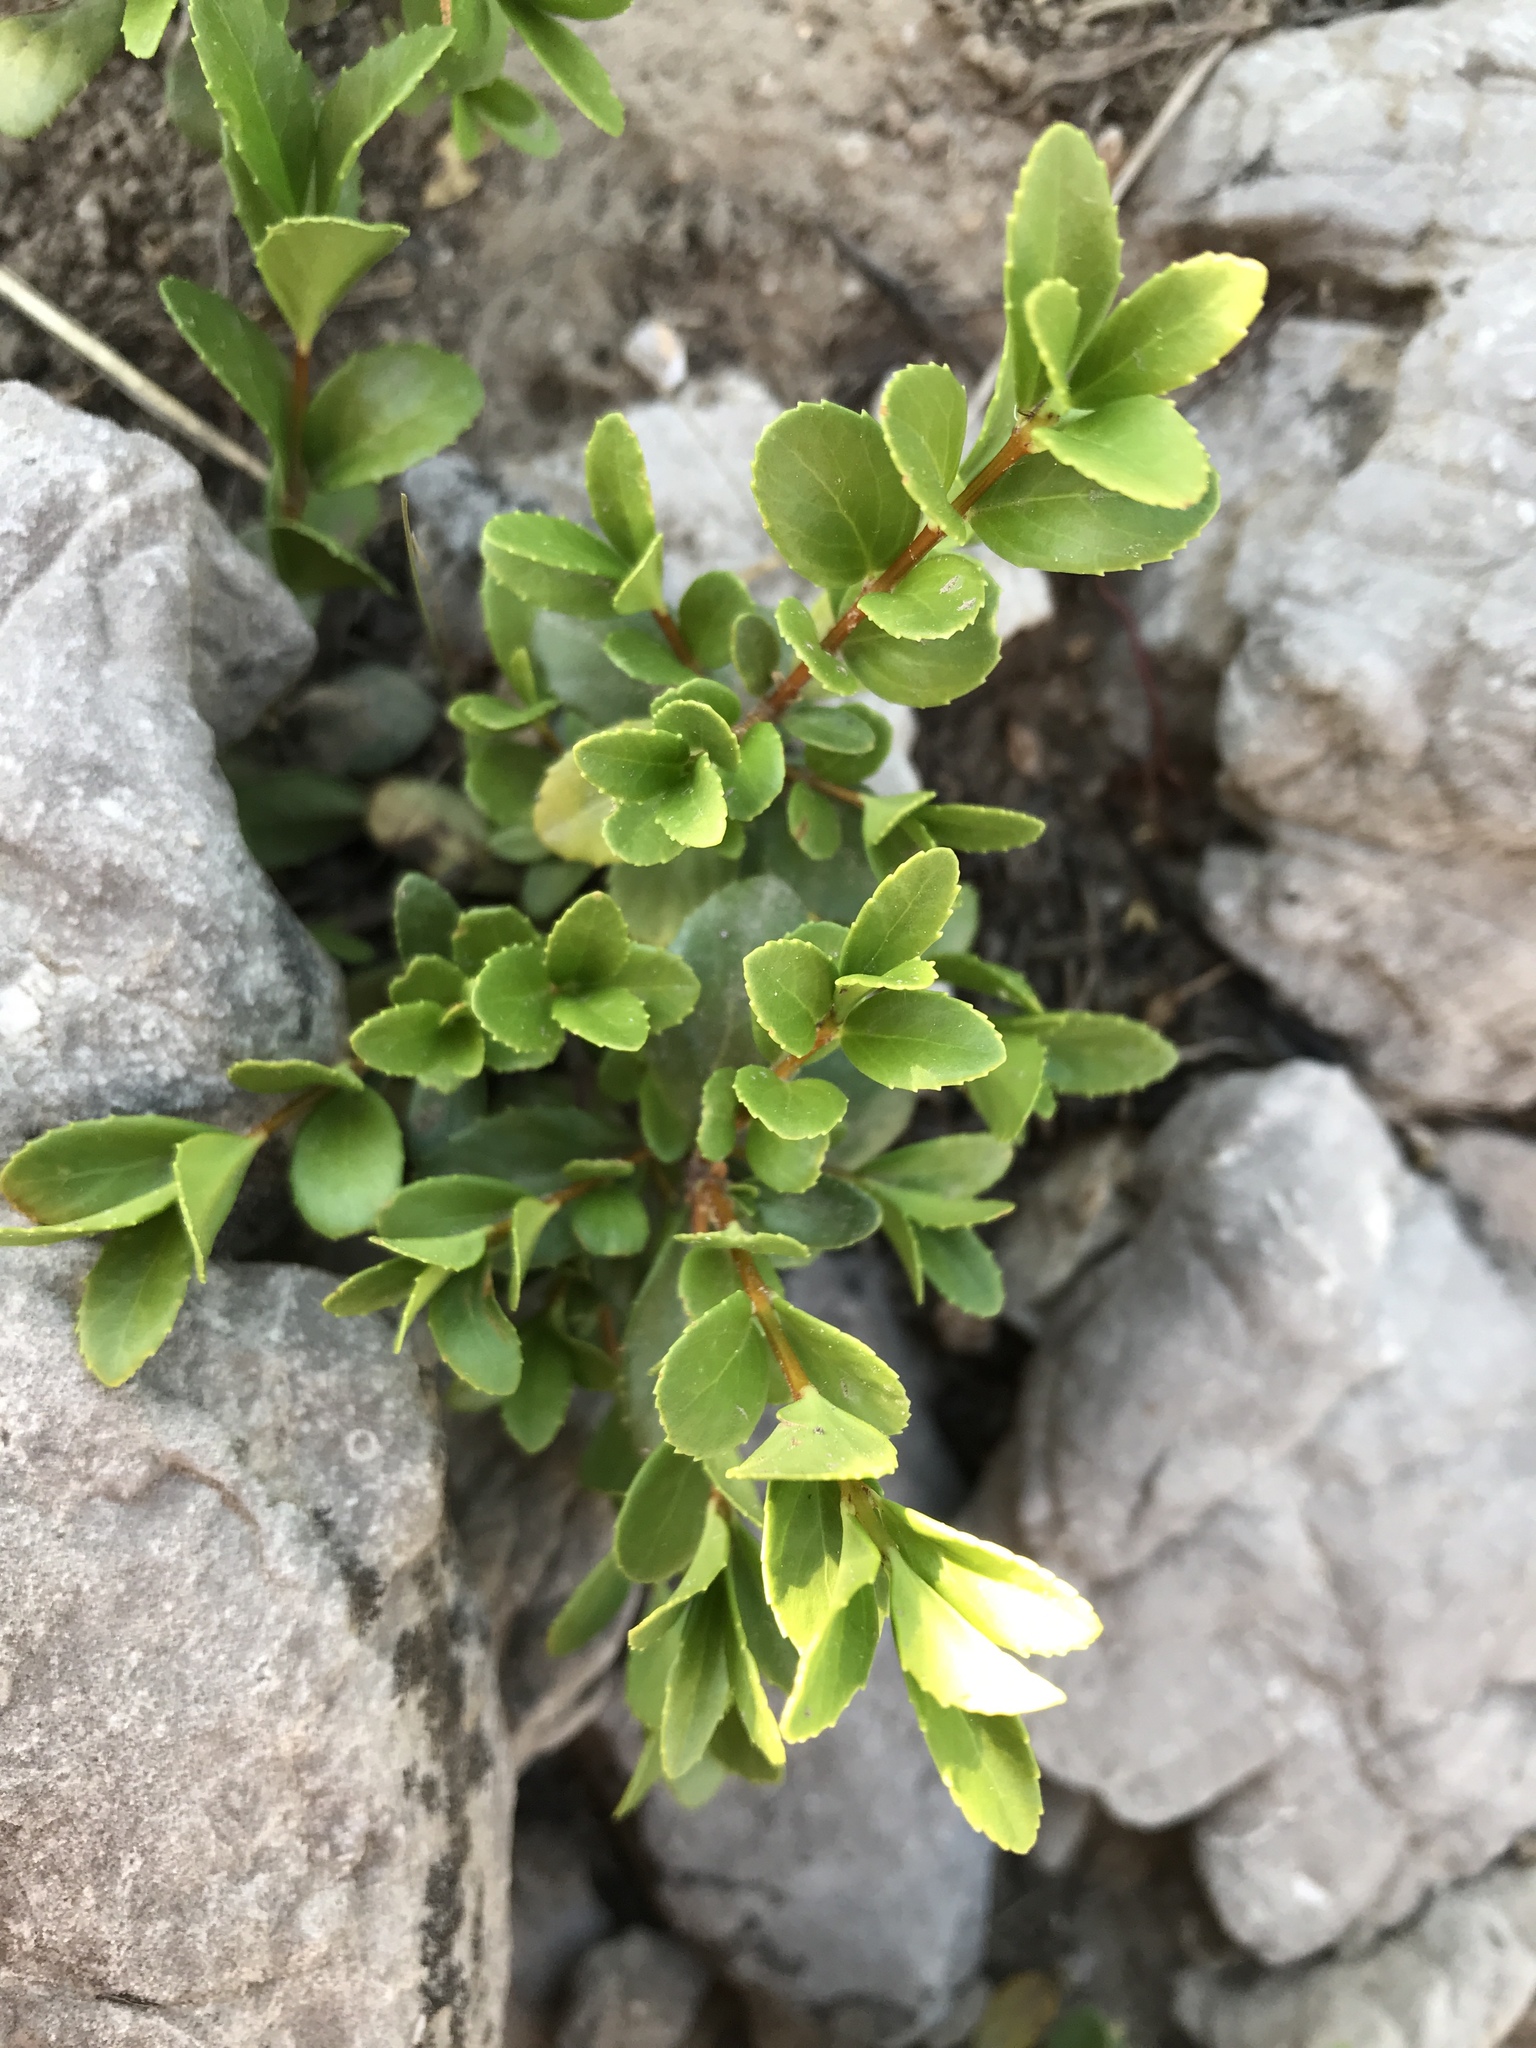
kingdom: Plantae
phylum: Tracheophyta
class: Magnoliopsida
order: Celastrales
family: Celastraceae
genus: Paxistima
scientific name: Paxistima myrsinites
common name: Mountain-lover
